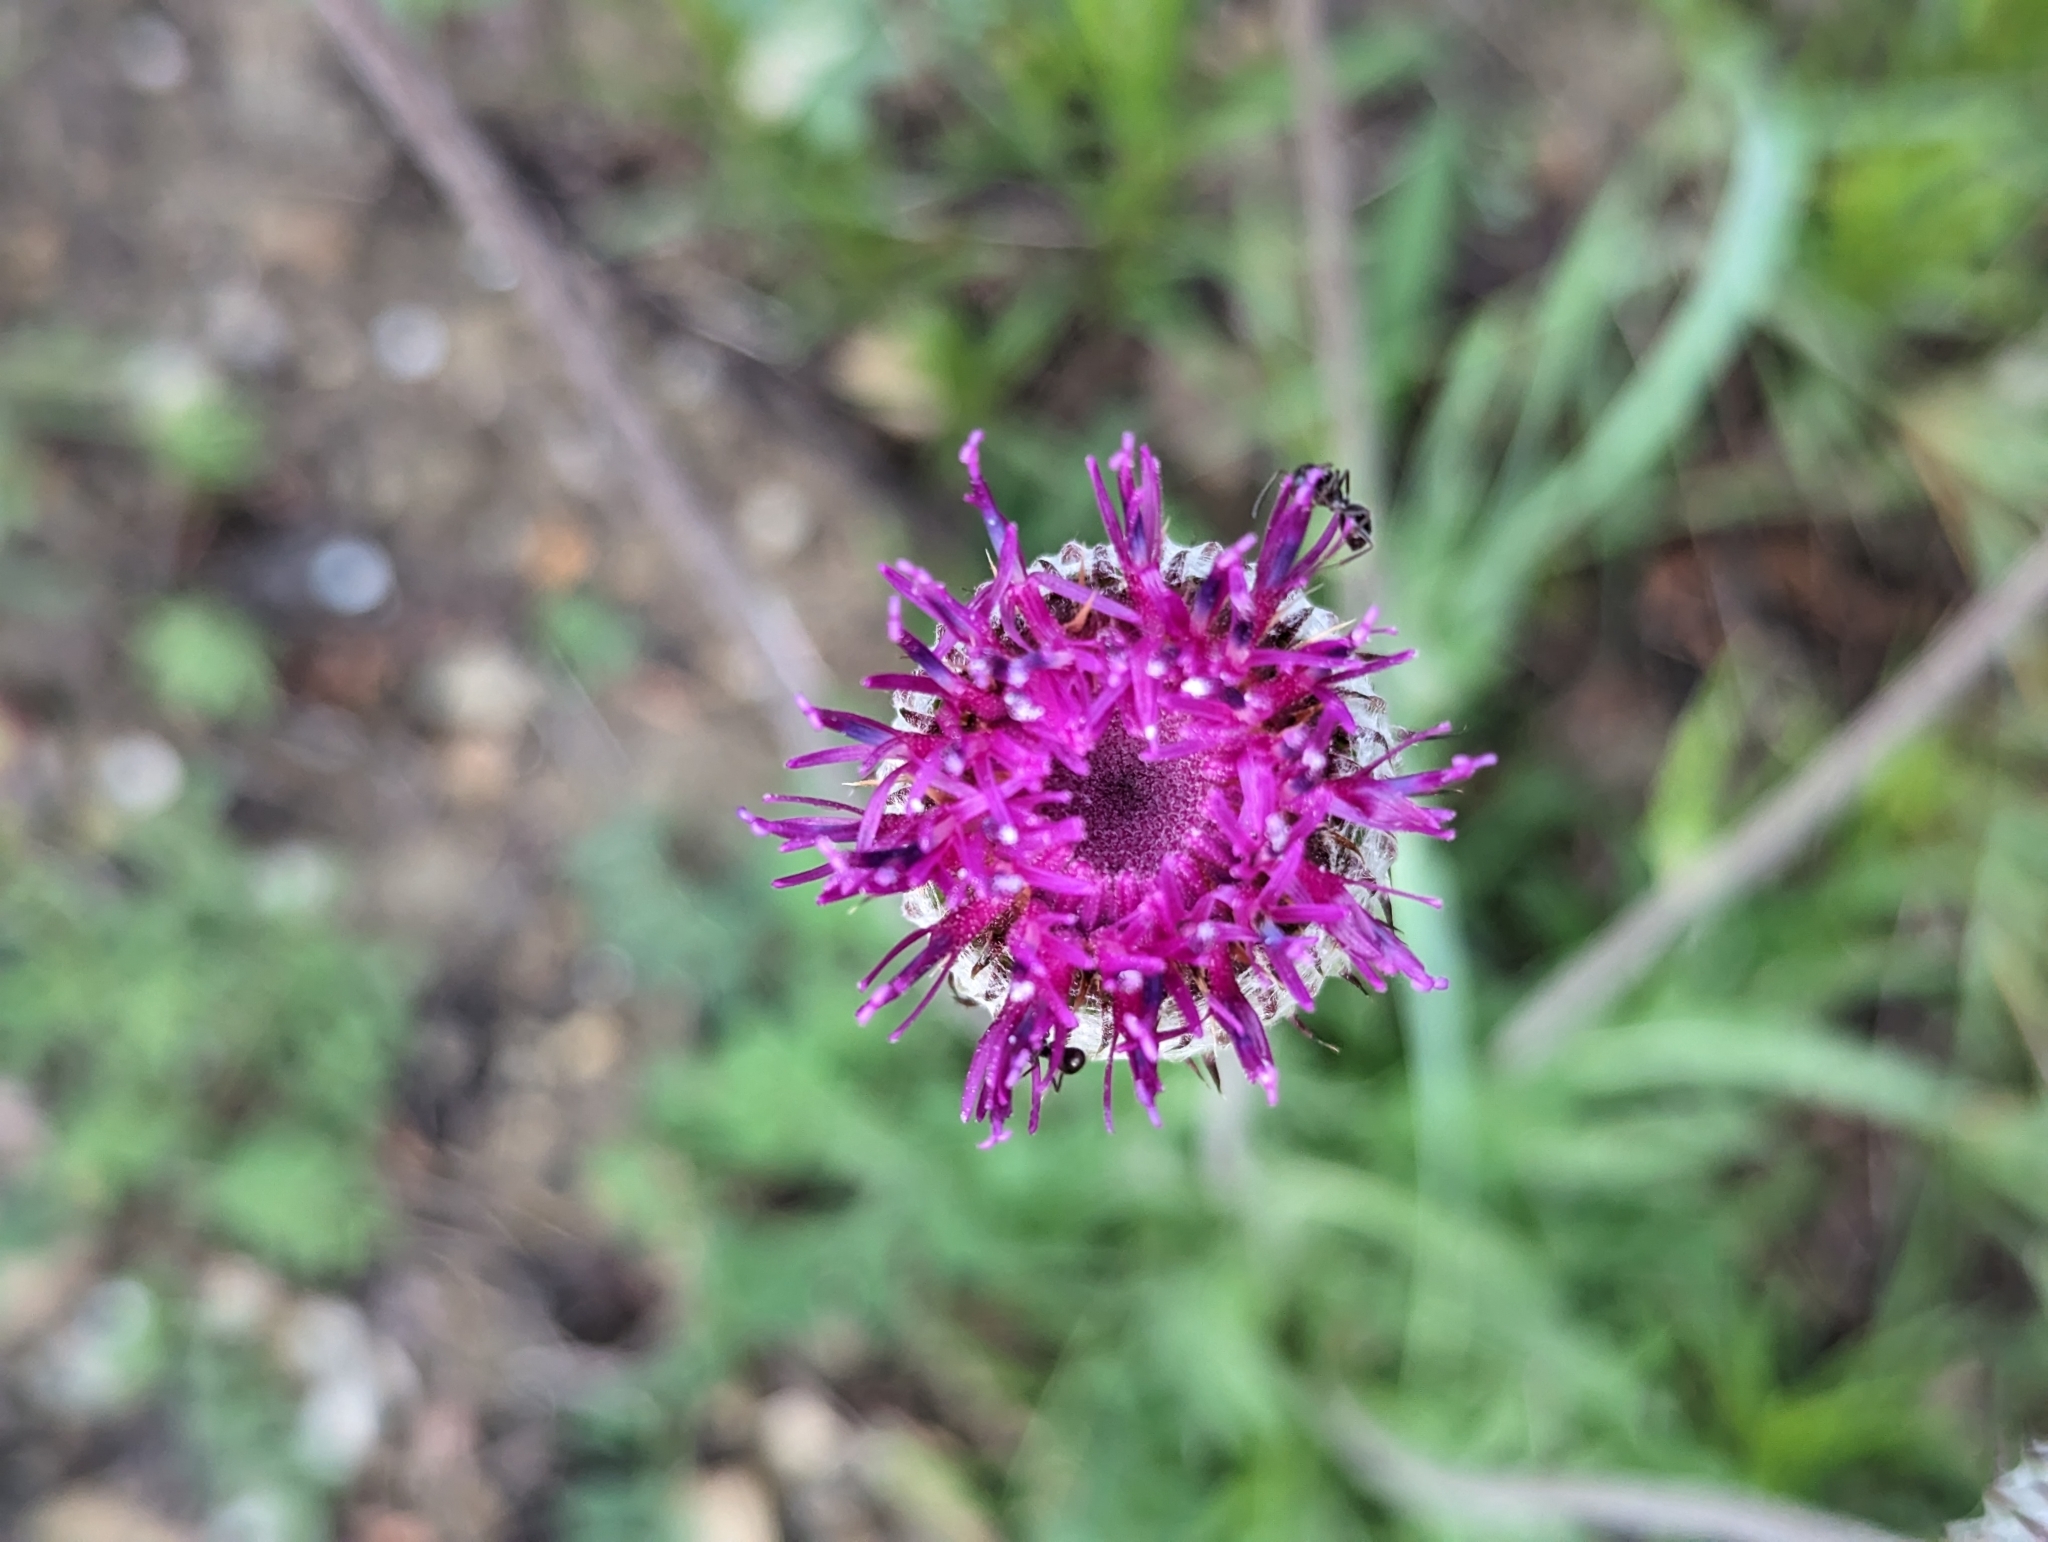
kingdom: Plantae
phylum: Tracheophyta
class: Magnoliopsida
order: Asterales
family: Asteraceae
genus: Jurinea
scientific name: Jurinea mollis
